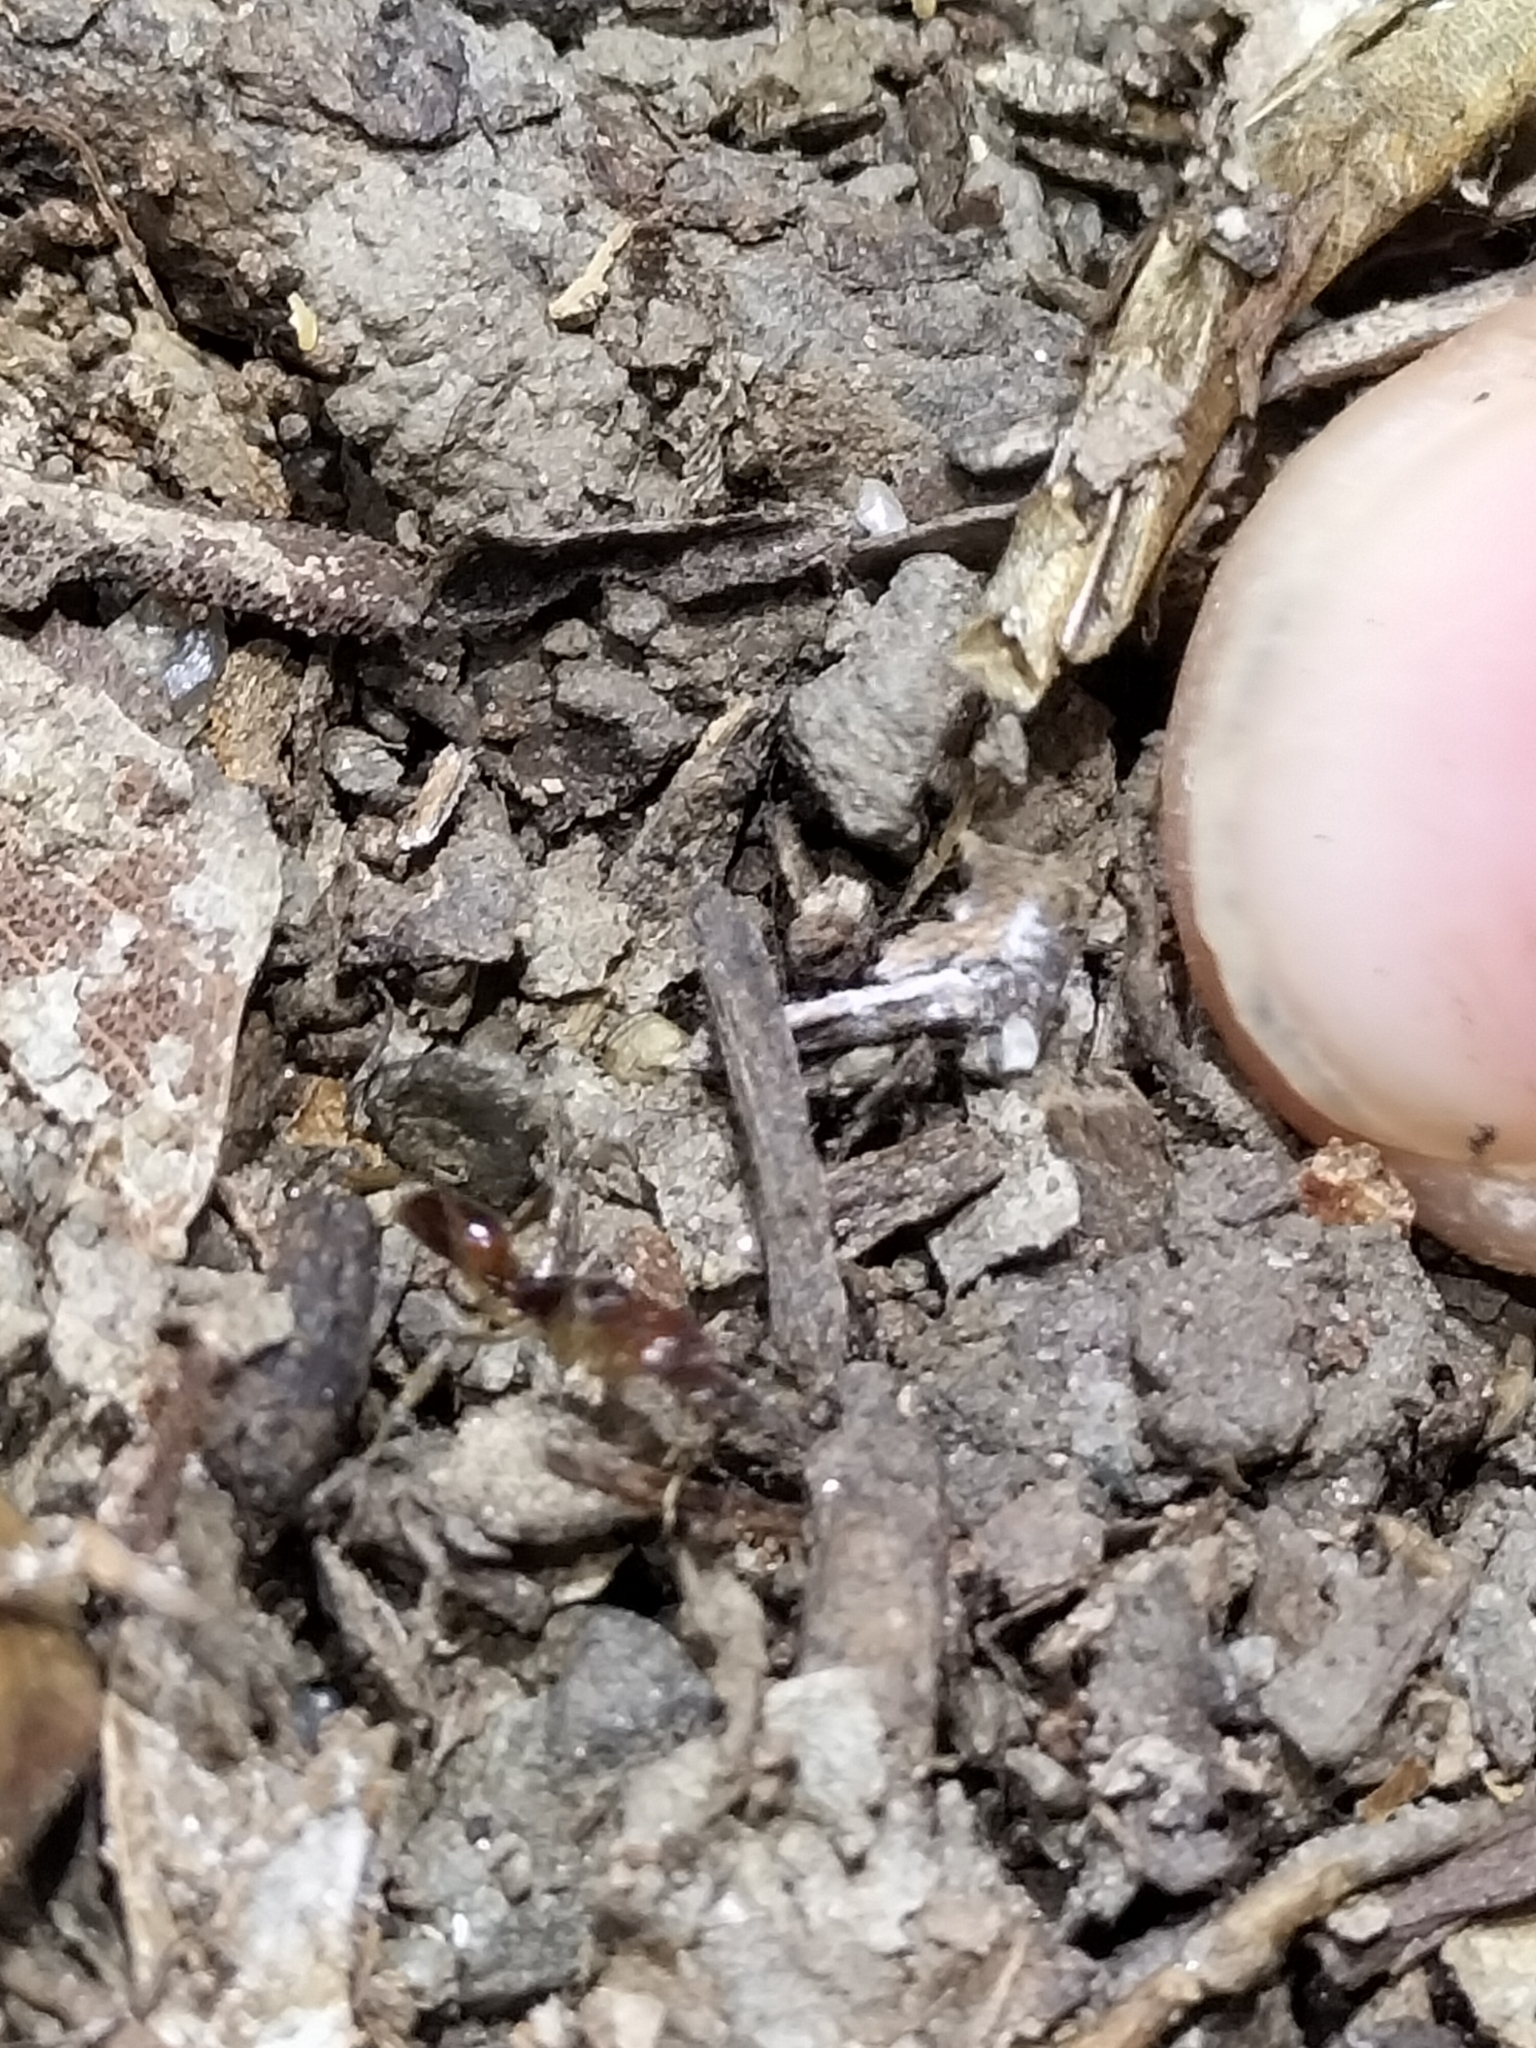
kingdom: Animalia
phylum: Arthropoda
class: Insecta
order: Hymenoptera
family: Formicidae
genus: Anochetus
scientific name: Anochetus alae
